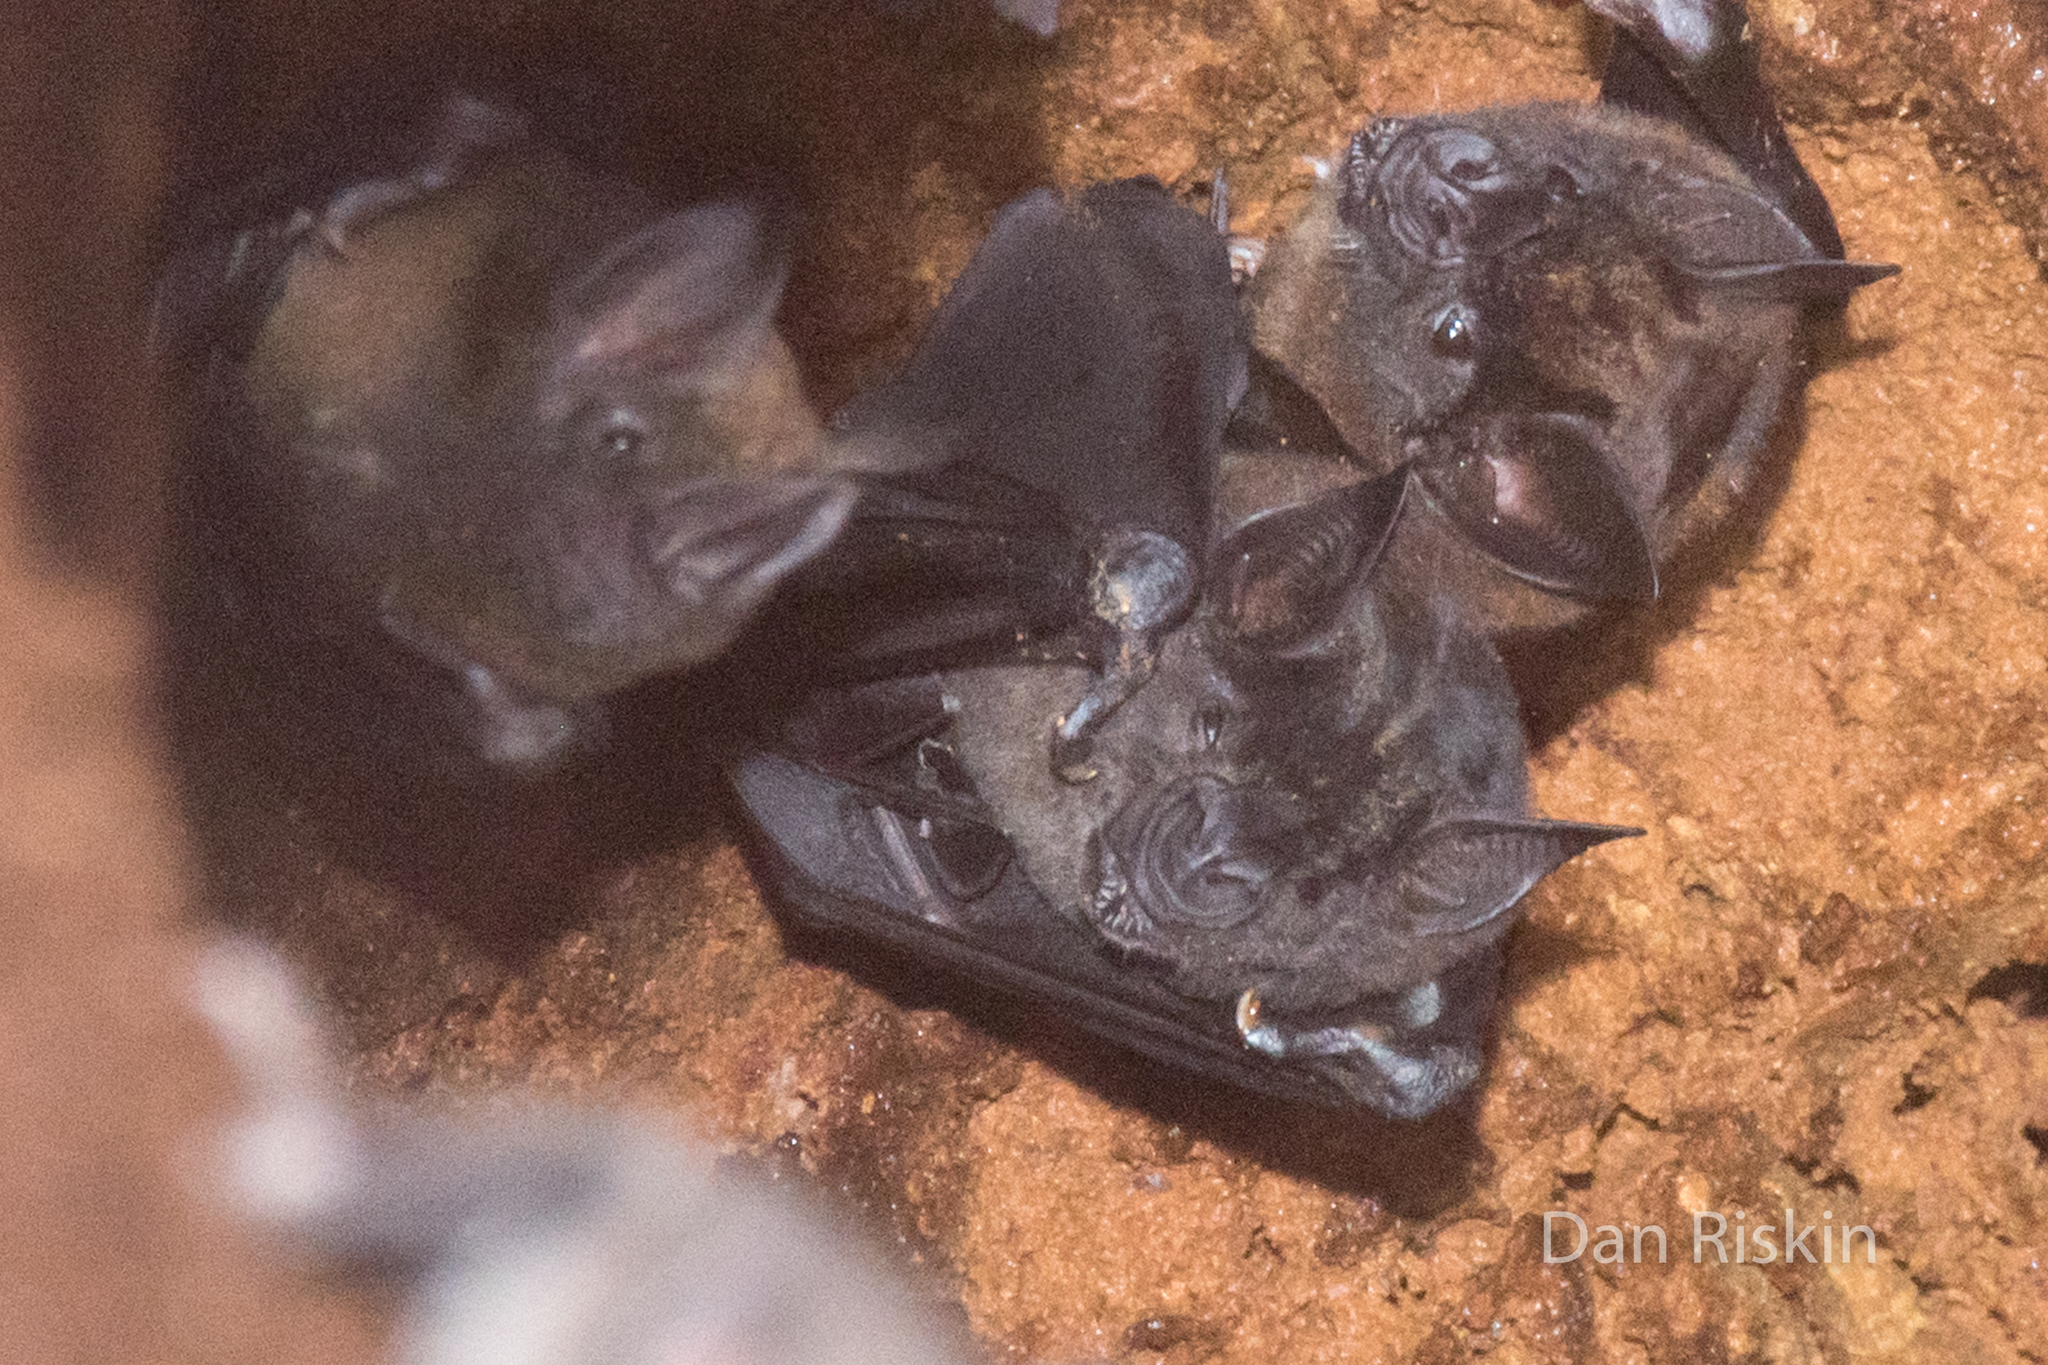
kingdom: Animalia
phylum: Chordata
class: Mammalia
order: Chiroptera
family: Phyllostomidae
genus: Phyllostomus
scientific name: Phyllostomus hastatus
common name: Greater spear-nosed bat
